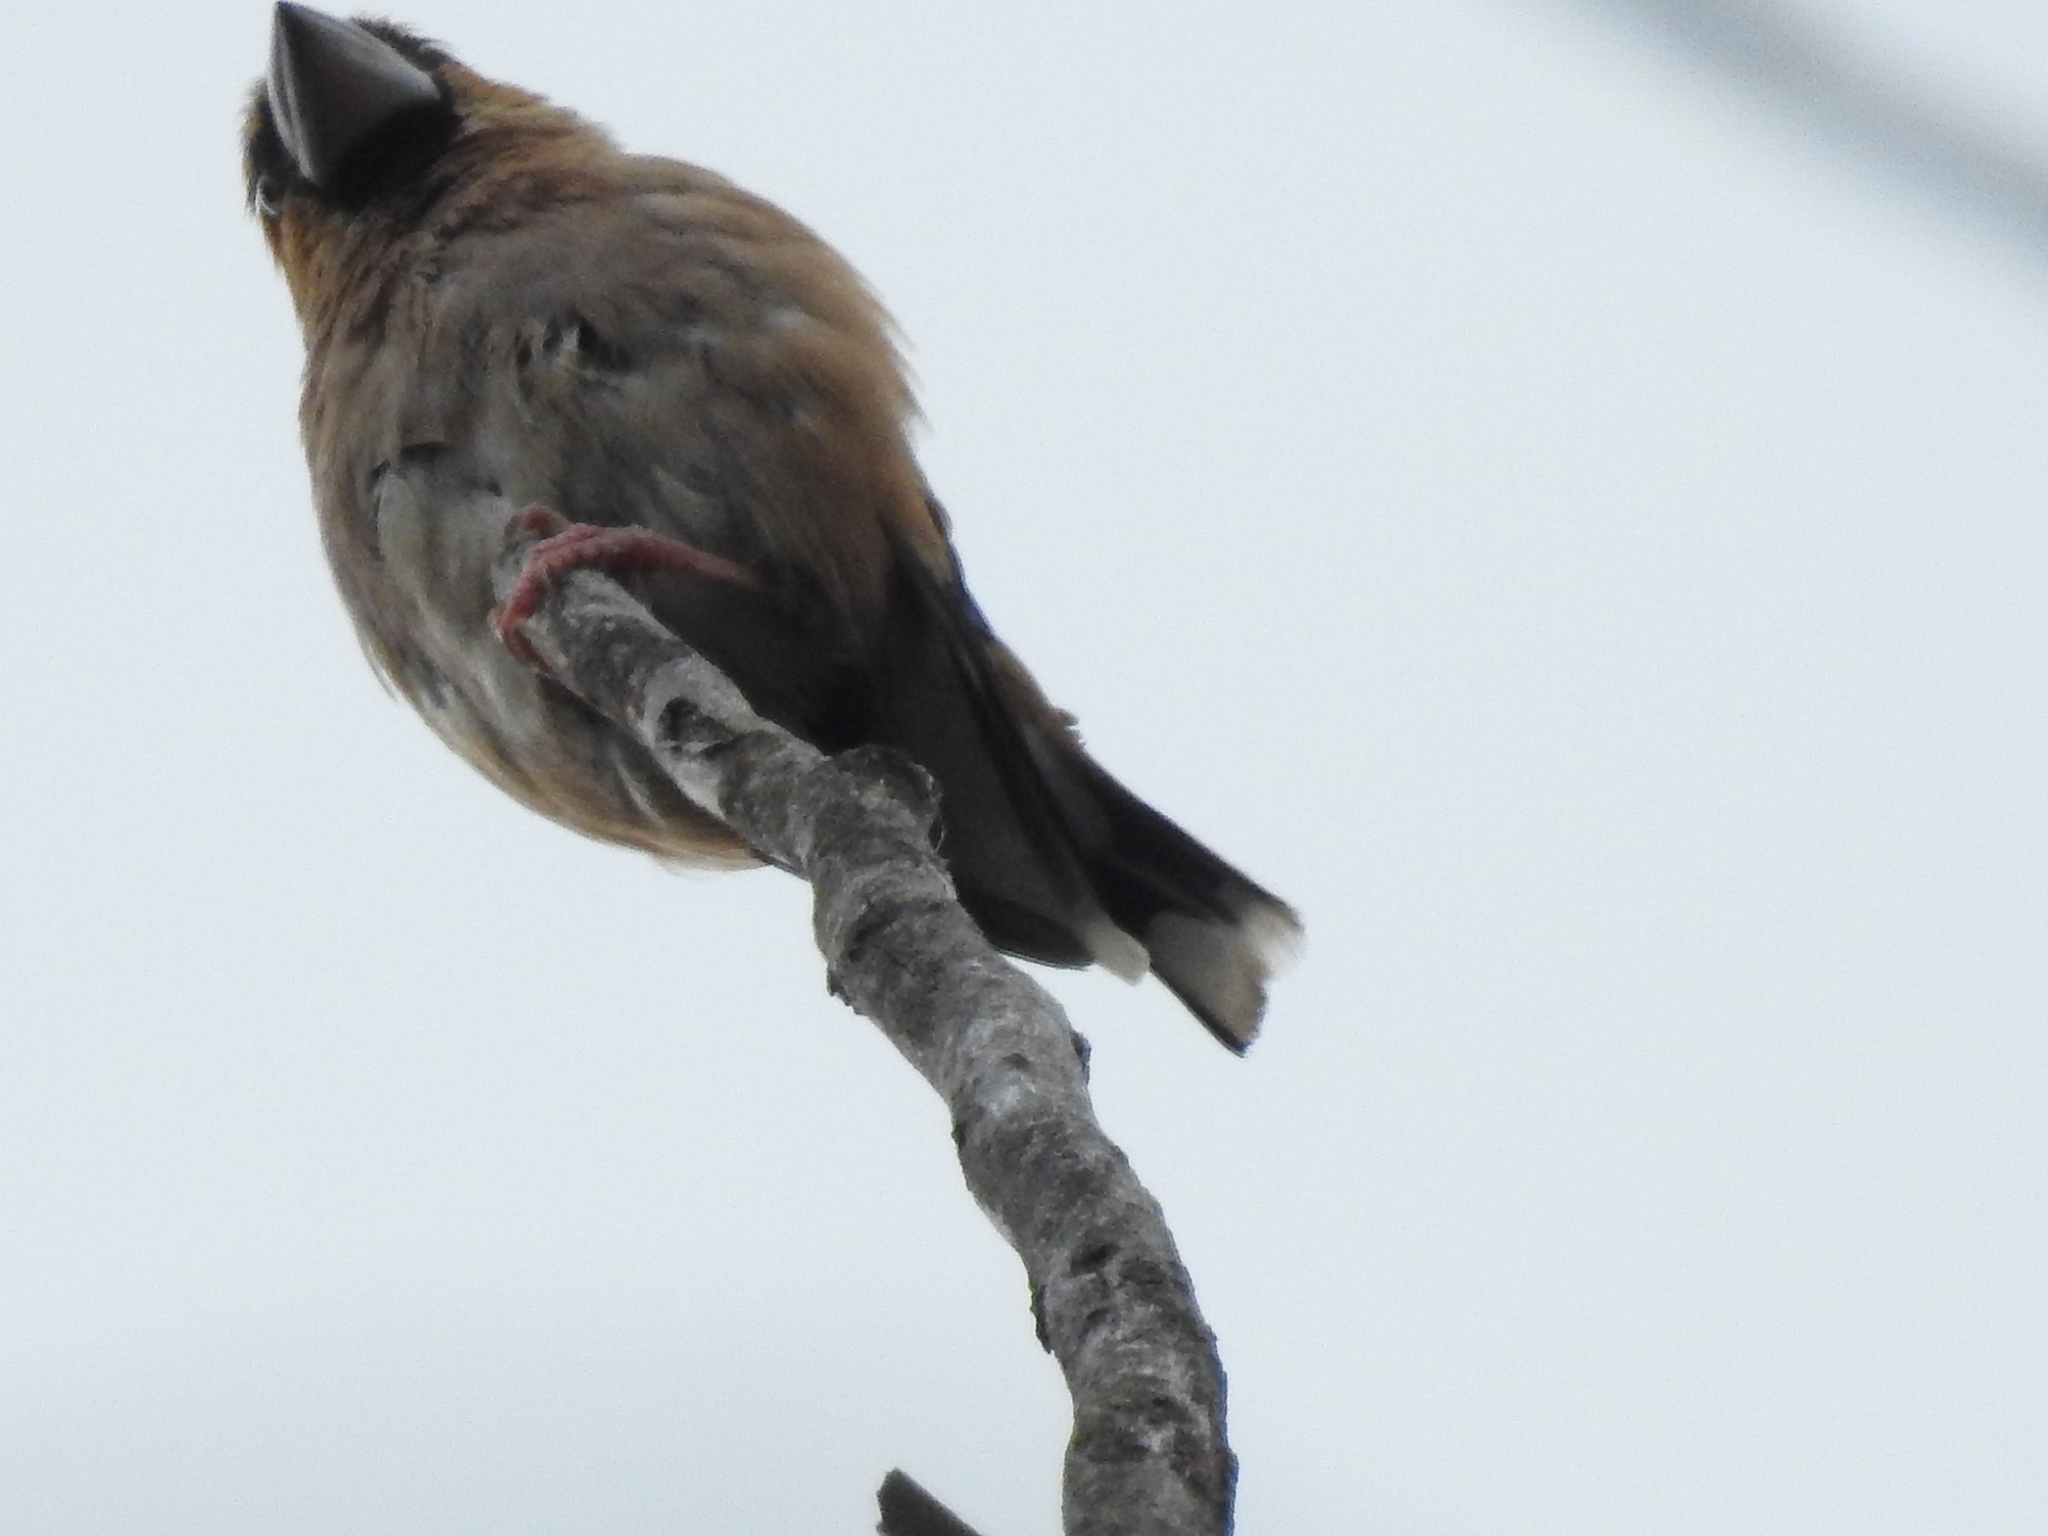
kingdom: Animalia
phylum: Chordata
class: Aves
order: Passeriformes
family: Fringillidae
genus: Coccothraustes
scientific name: Coccothraustes coccothraustes
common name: Hawfinch
